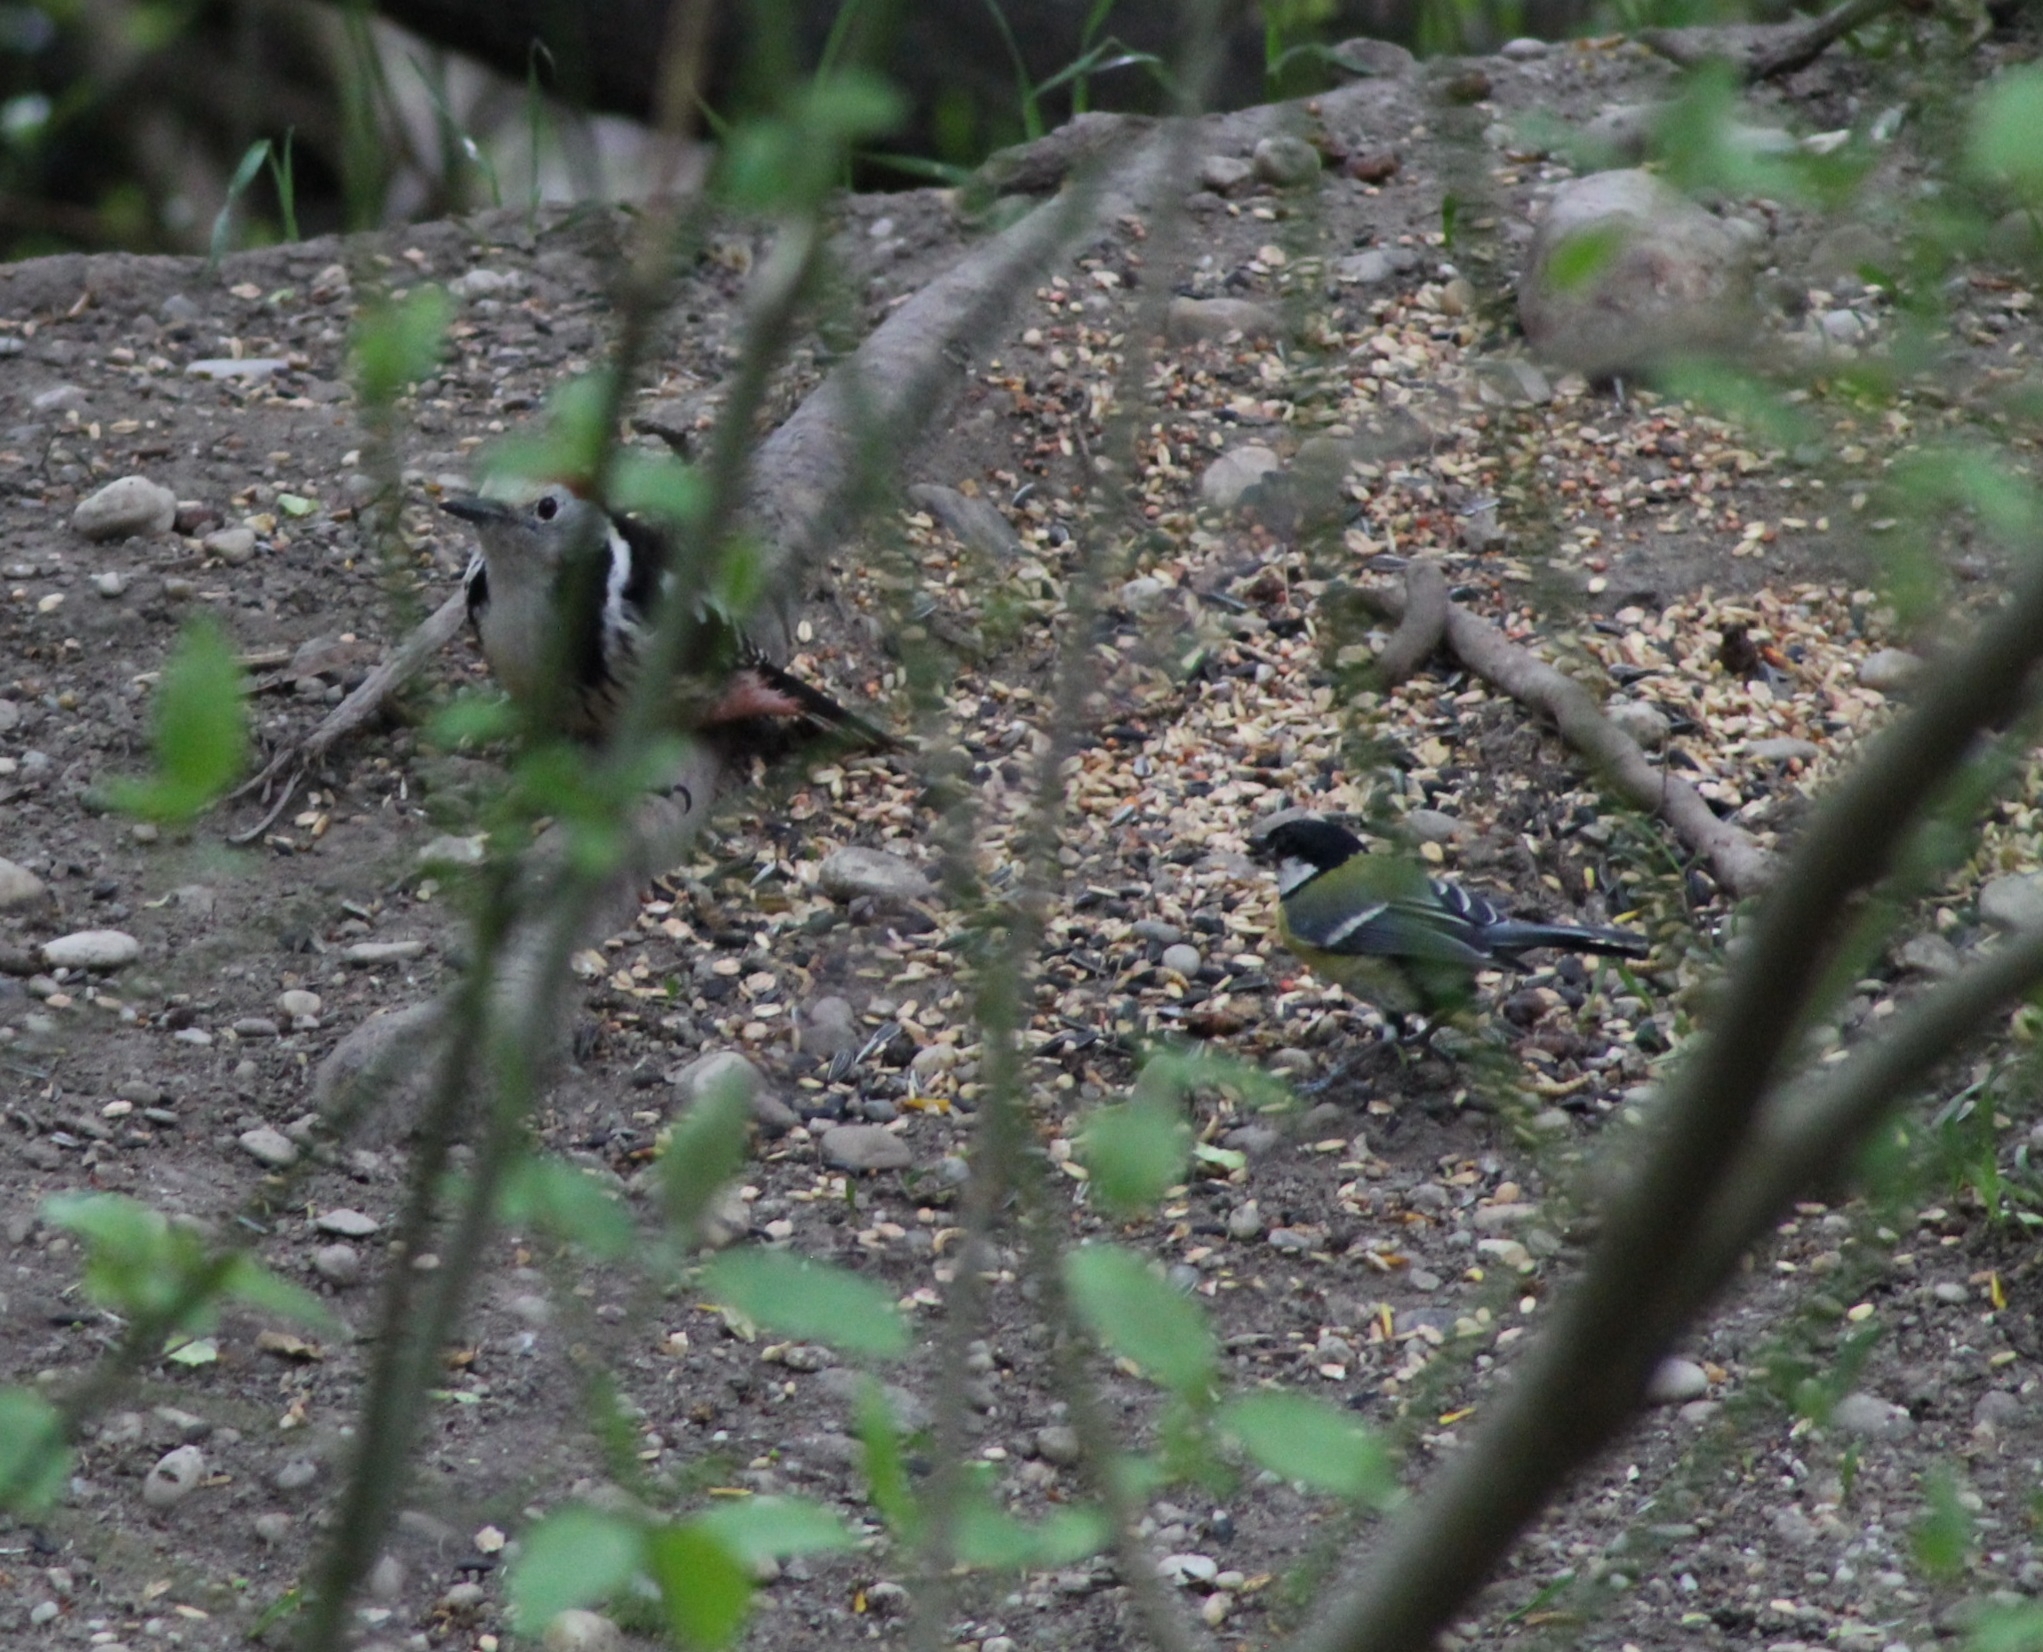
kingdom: Animalia
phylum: Chordata
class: Aves
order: Piciformes
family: Picidae
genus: Dendrocoptes
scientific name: Dendrocoptes medius
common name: Middle spotted woodpecker
